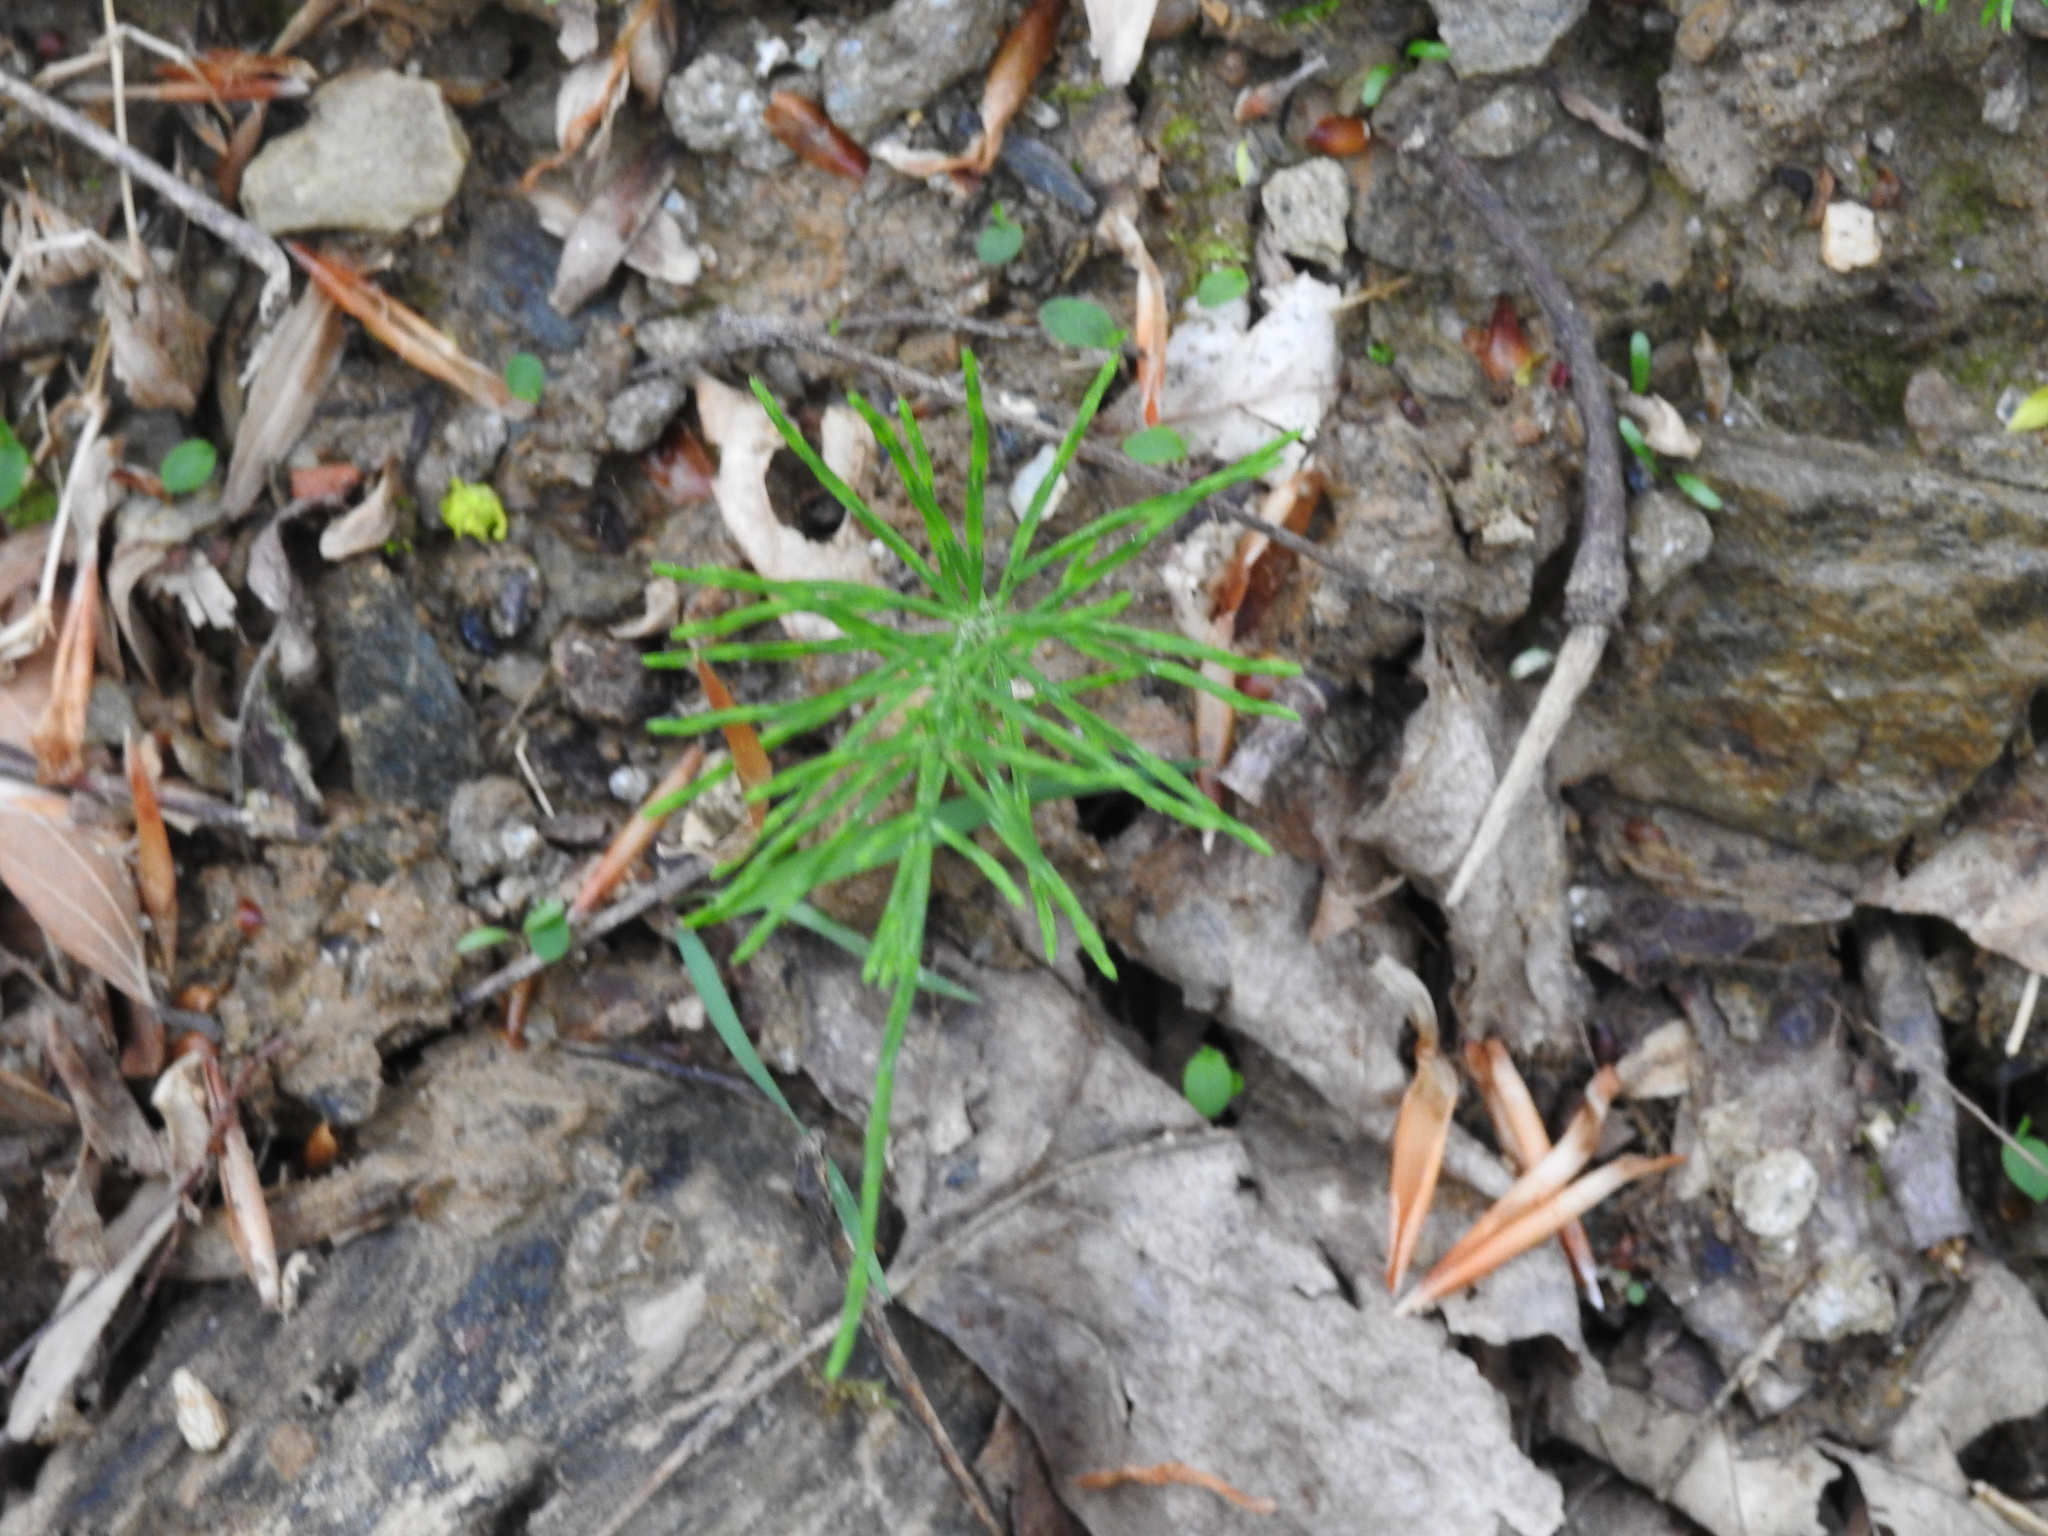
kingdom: Plantae
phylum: Tracheophyta
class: Polypodiopsida
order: Equisetales
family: Equisetaceae
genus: Equisetum
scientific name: Equisetum arvense
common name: Field horsetail
